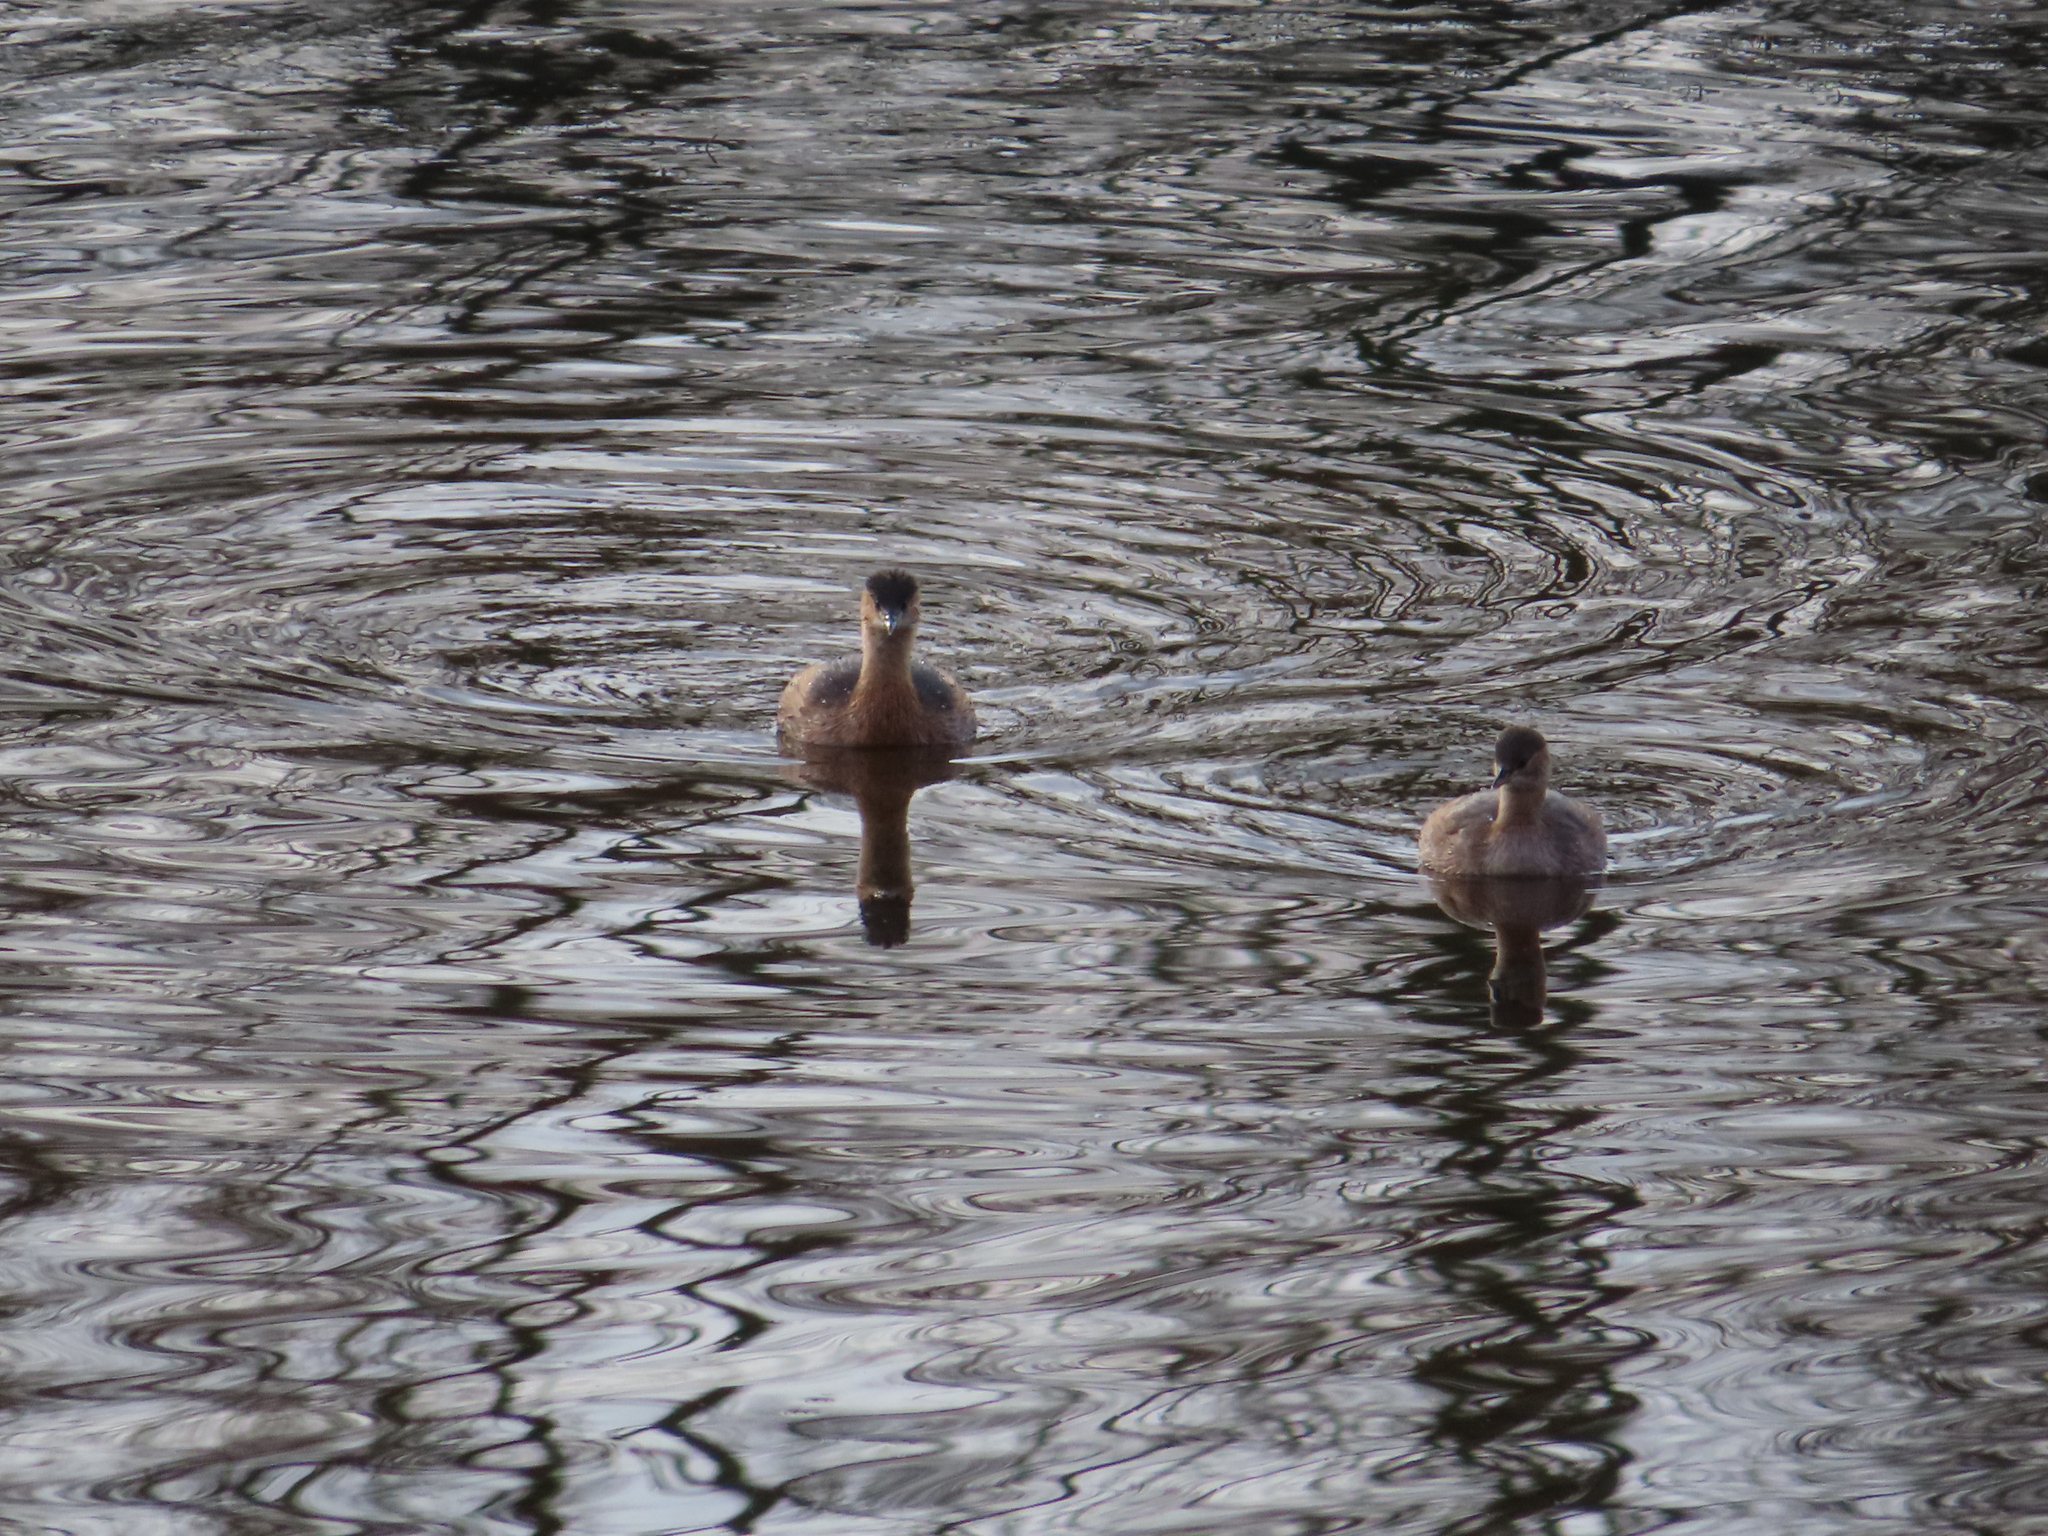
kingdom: Animalia
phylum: Chordata
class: Aves
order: Podicipediformes
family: Podicipedidae
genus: Tachybaptus
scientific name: Tachybaptus ruficollis
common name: Little grebe
